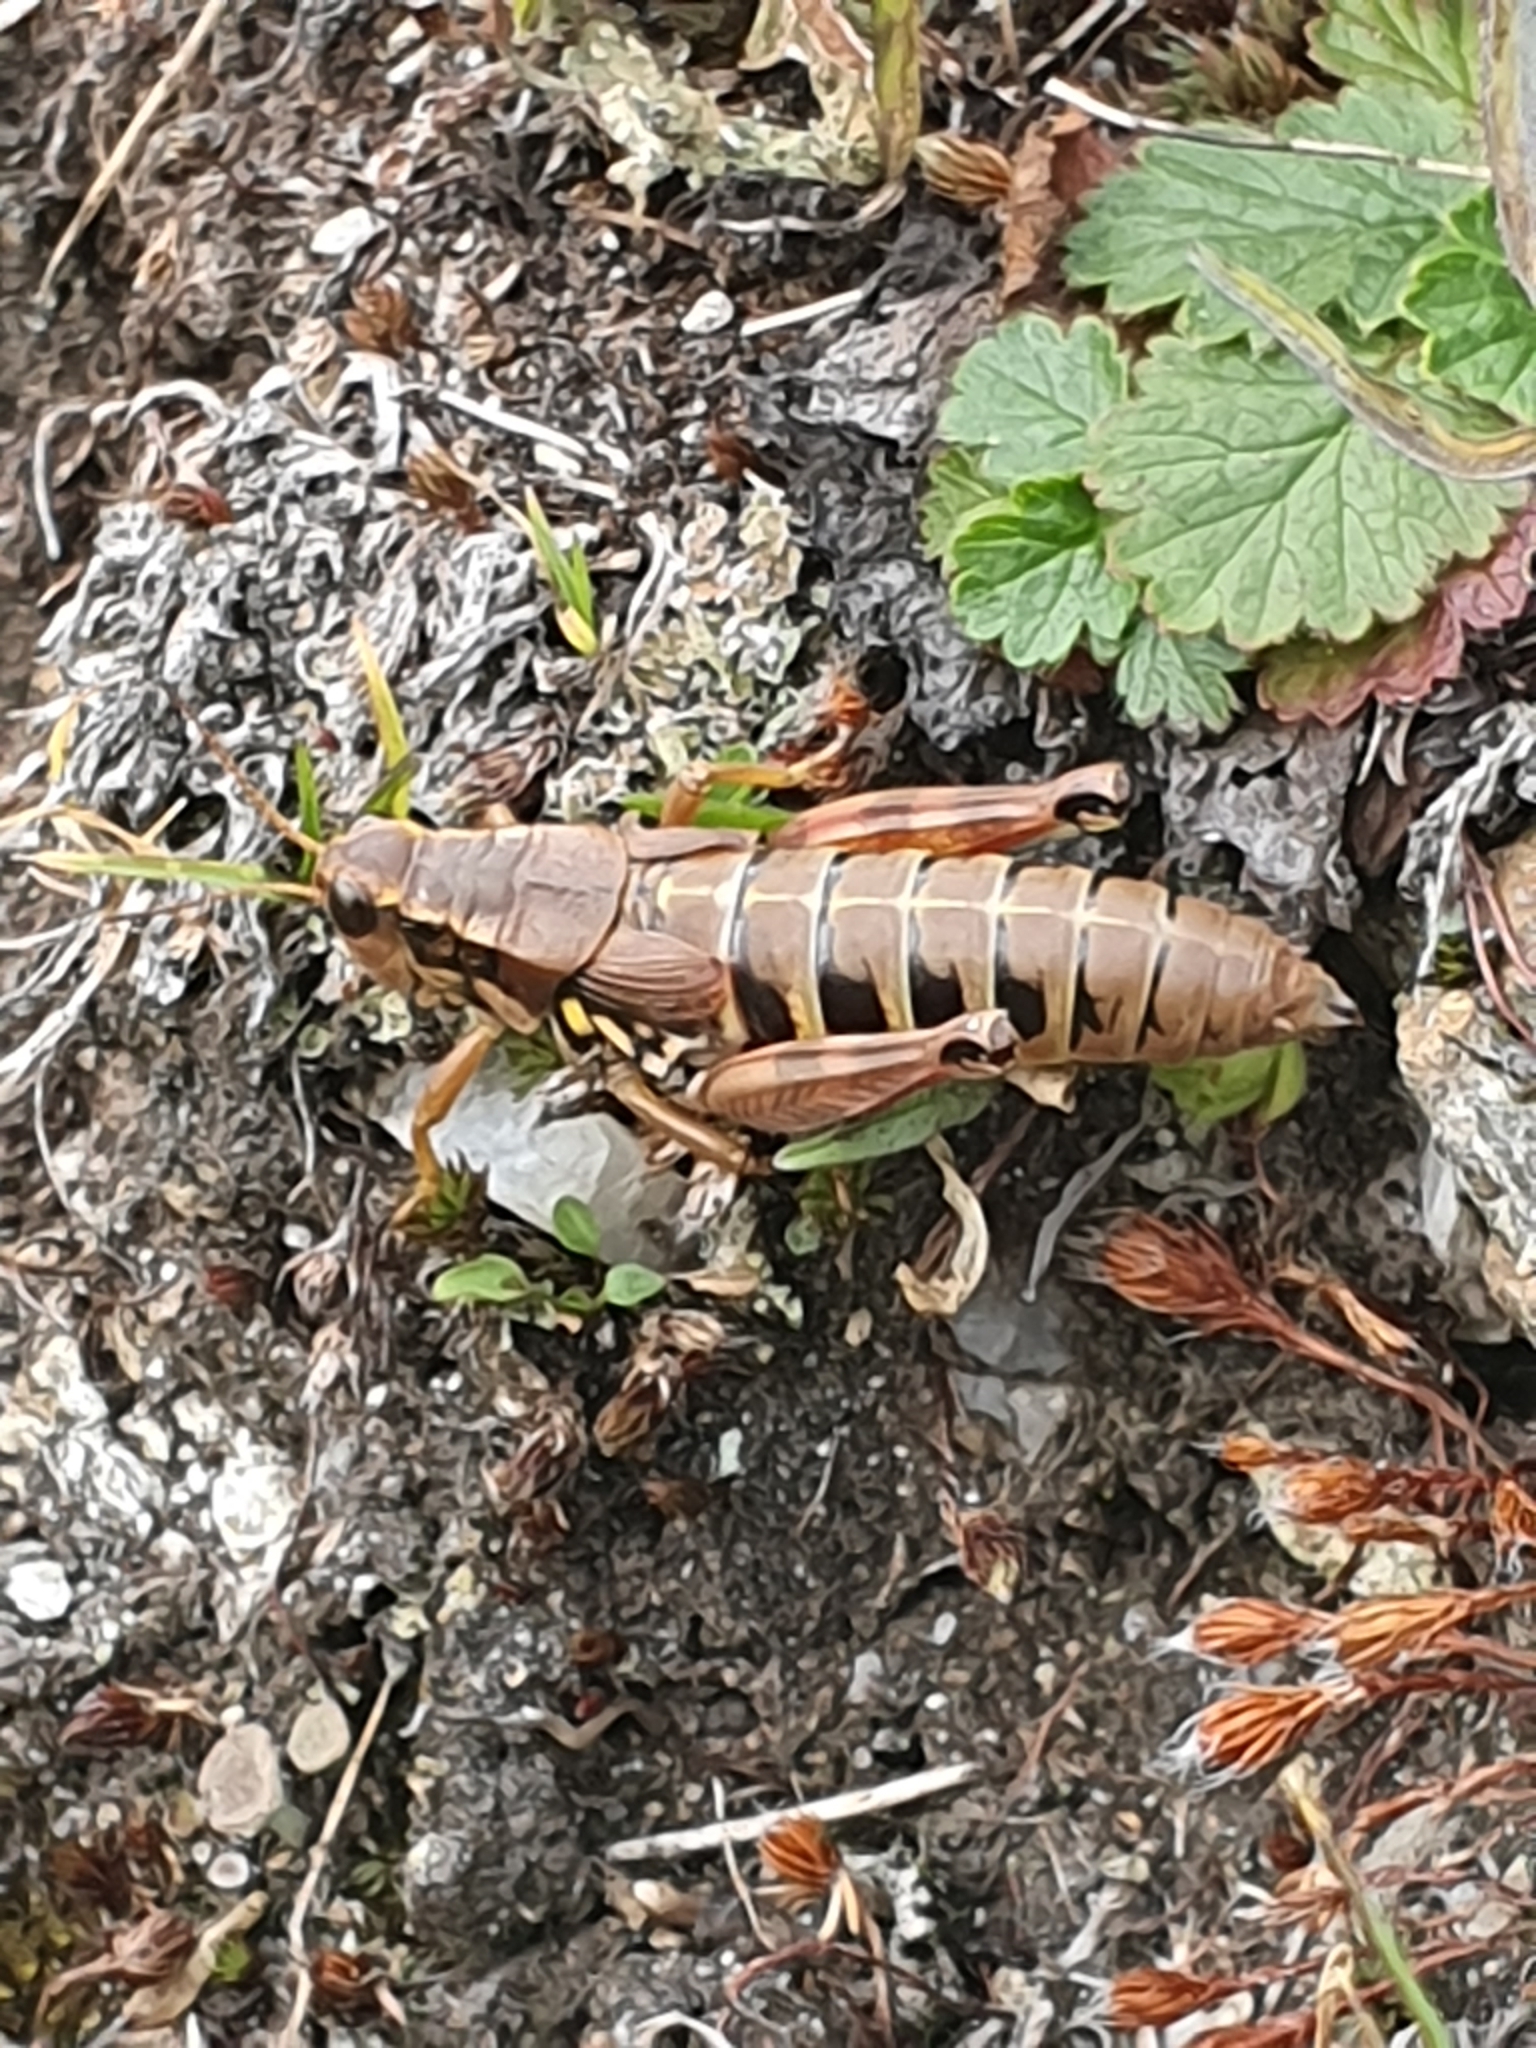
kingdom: Animalia
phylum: Arthropoda
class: Insecta
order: Orthoptera
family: Acrididae
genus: Podisma
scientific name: Podisma pedestris
